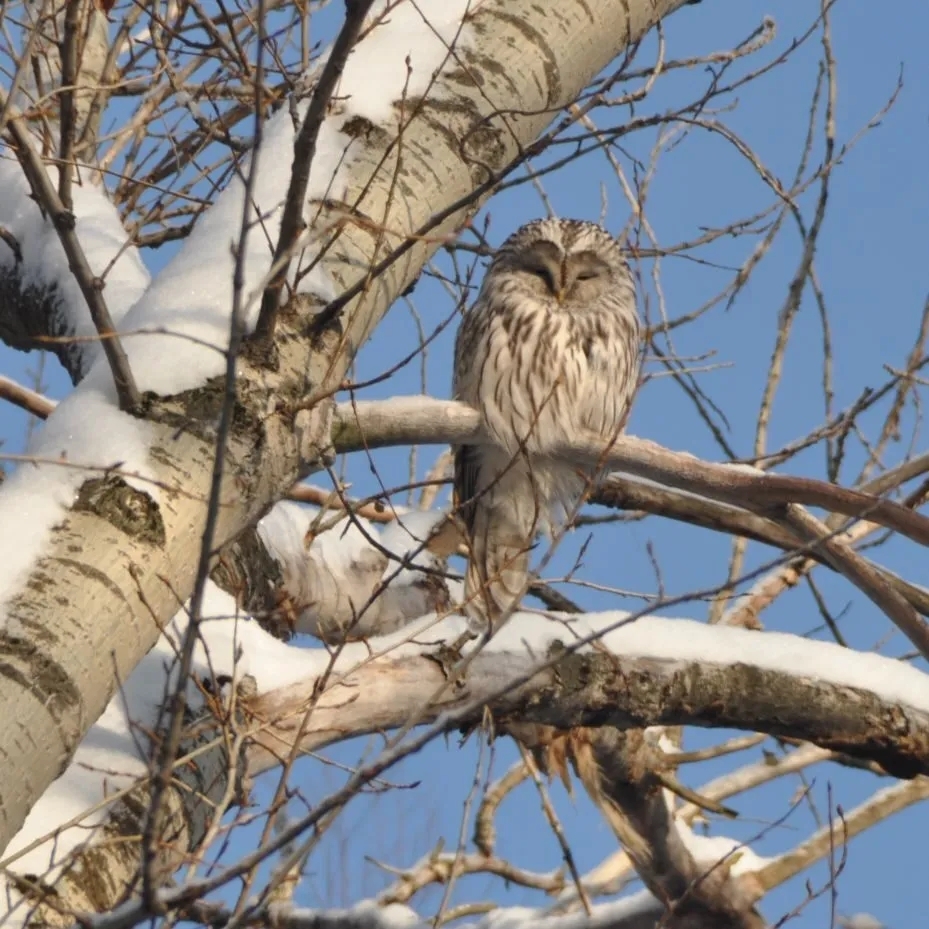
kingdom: Animalia
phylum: Chordata
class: Aves
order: Strigiformes
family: Strigidae
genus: Strix
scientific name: Strix uralensis
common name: Ural owl
